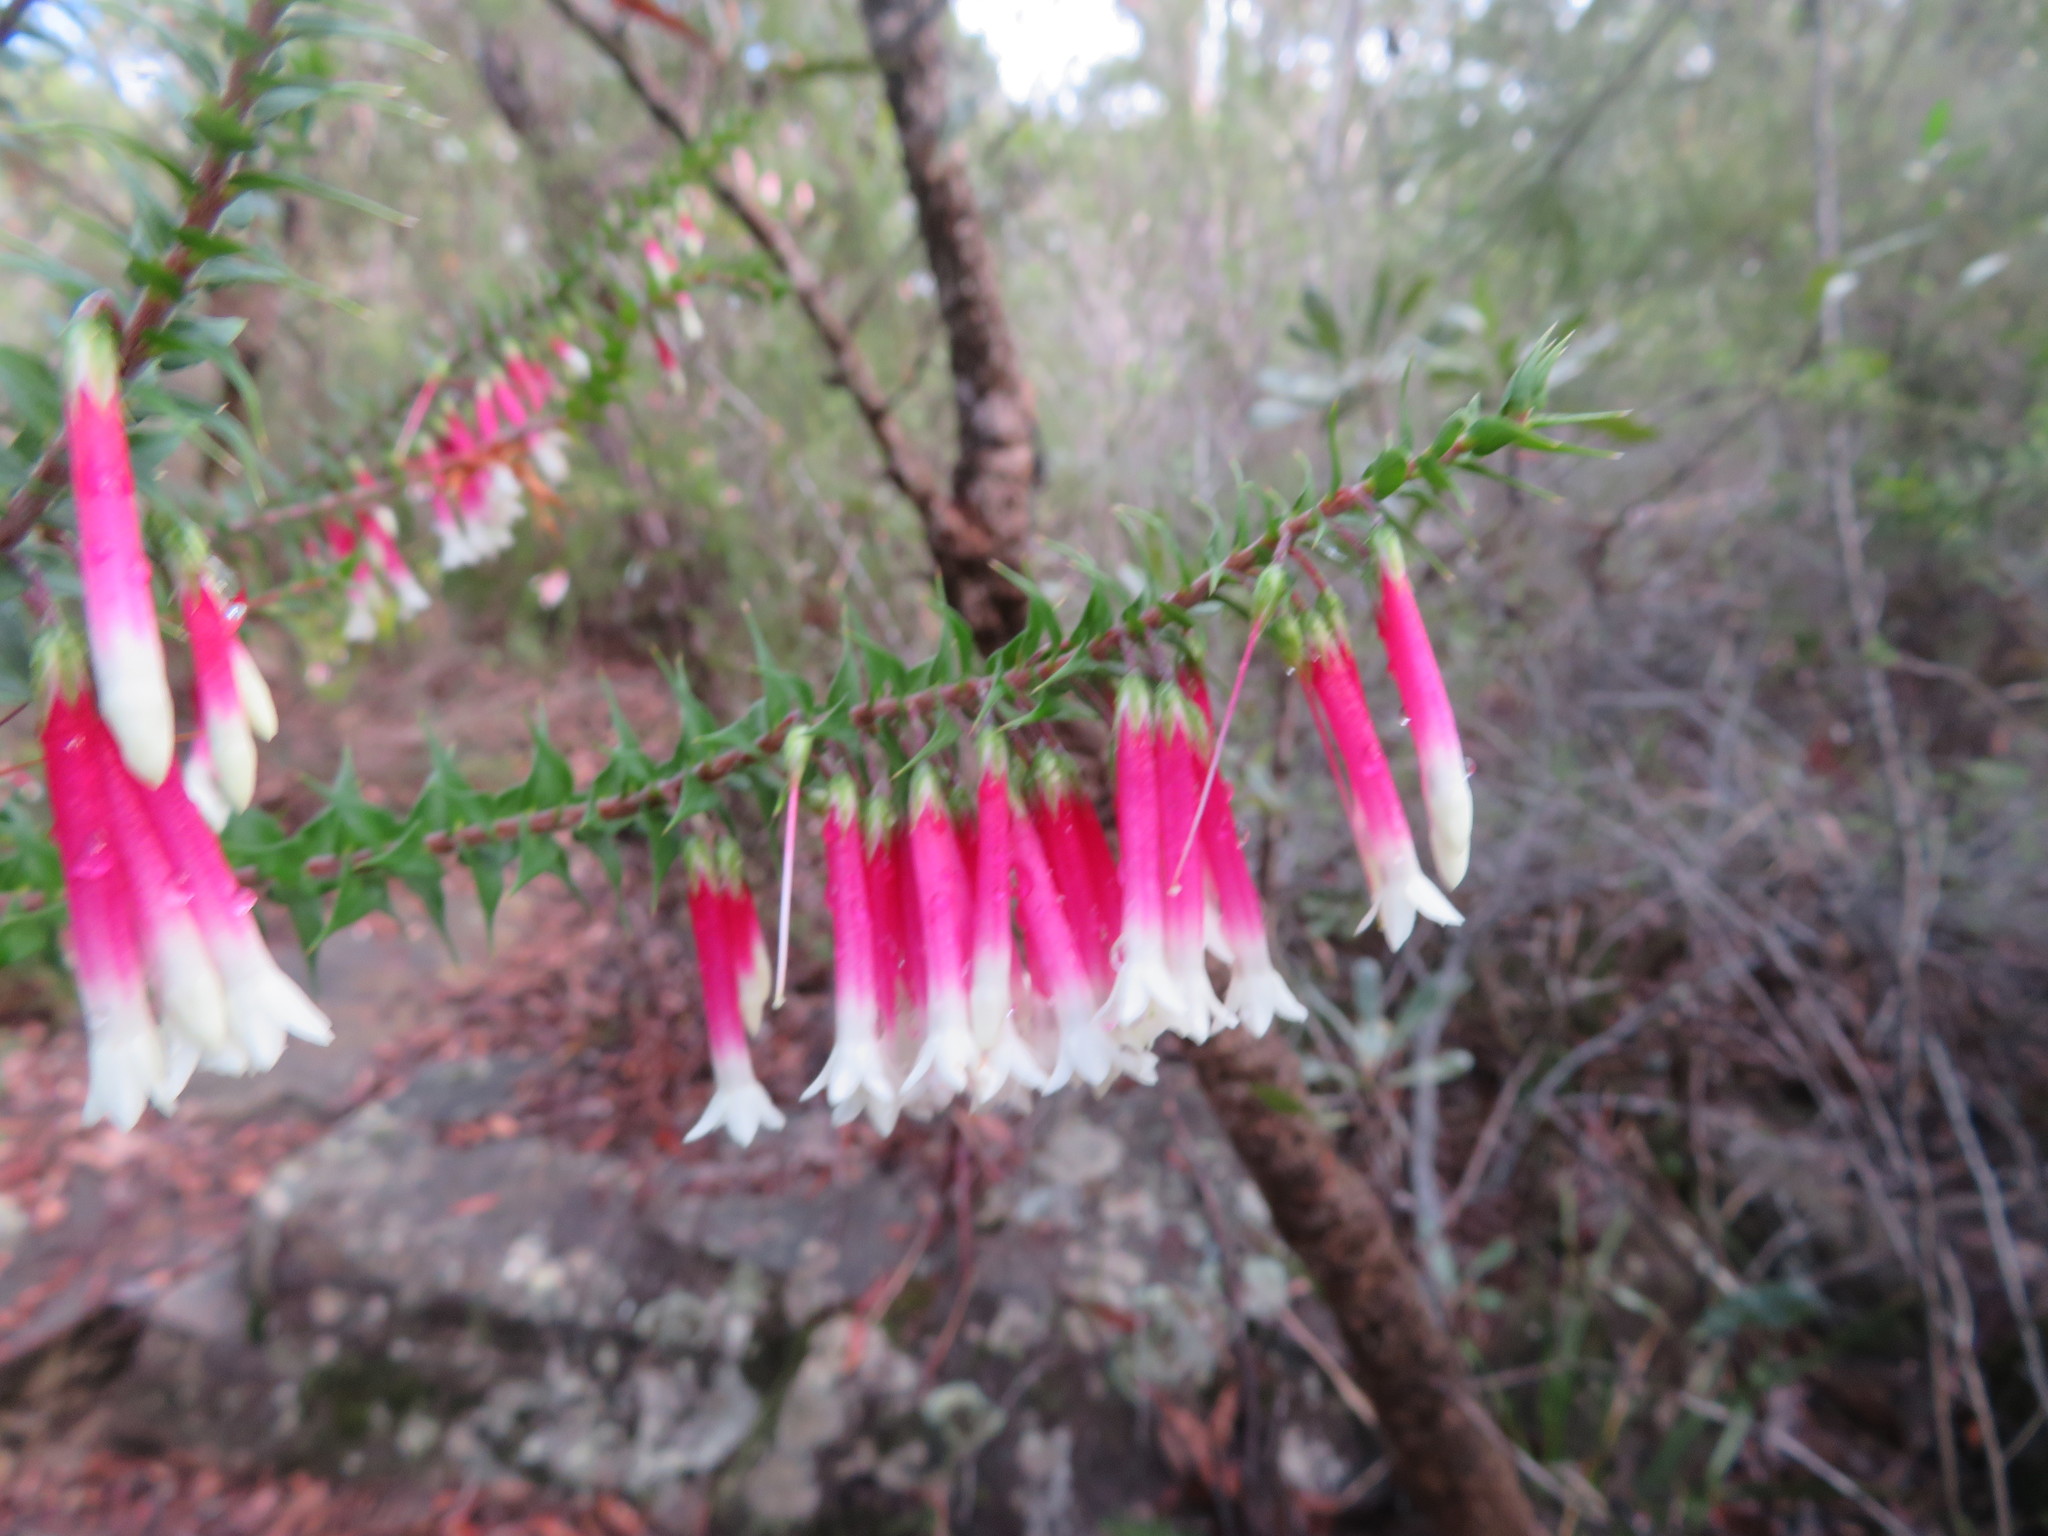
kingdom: Plantae
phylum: Tracheophyta
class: Magnoliopsida
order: Ericales
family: Ericaceae
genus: Epacris
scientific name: Epacris longiflora
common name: Fuchsia-heath
